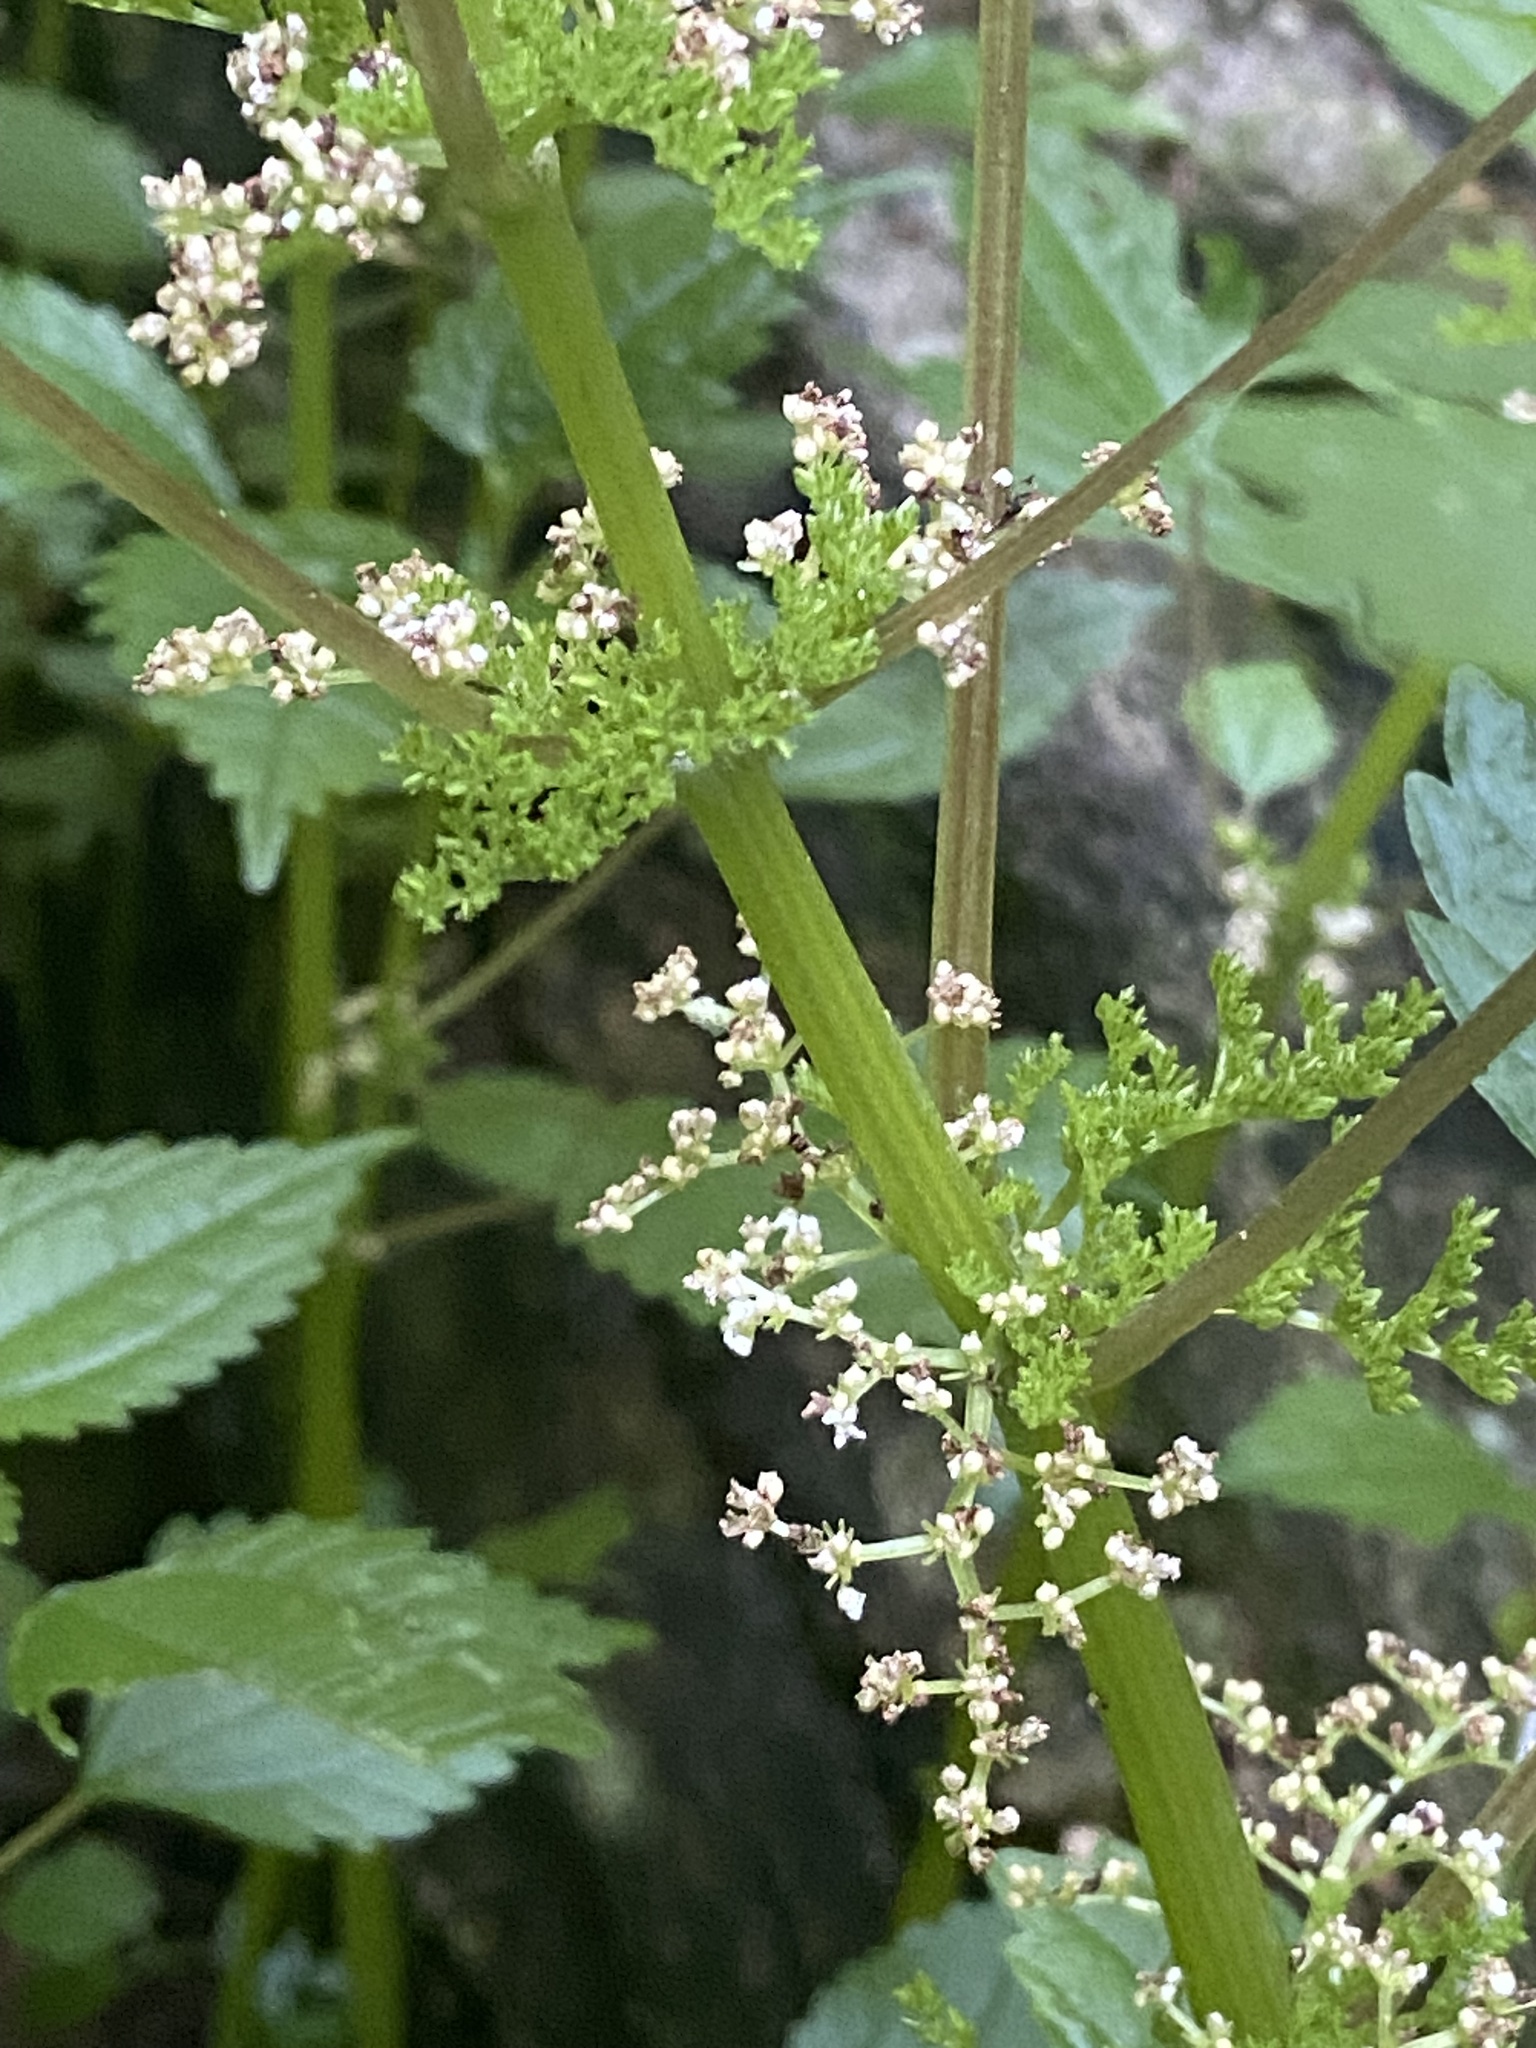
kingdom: Plantae
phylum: Tracheophyta
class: Magnoliopsida
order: Rosales
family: Urticaceae
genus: Pilea
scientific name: Pilea pumila
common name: Clearweed
